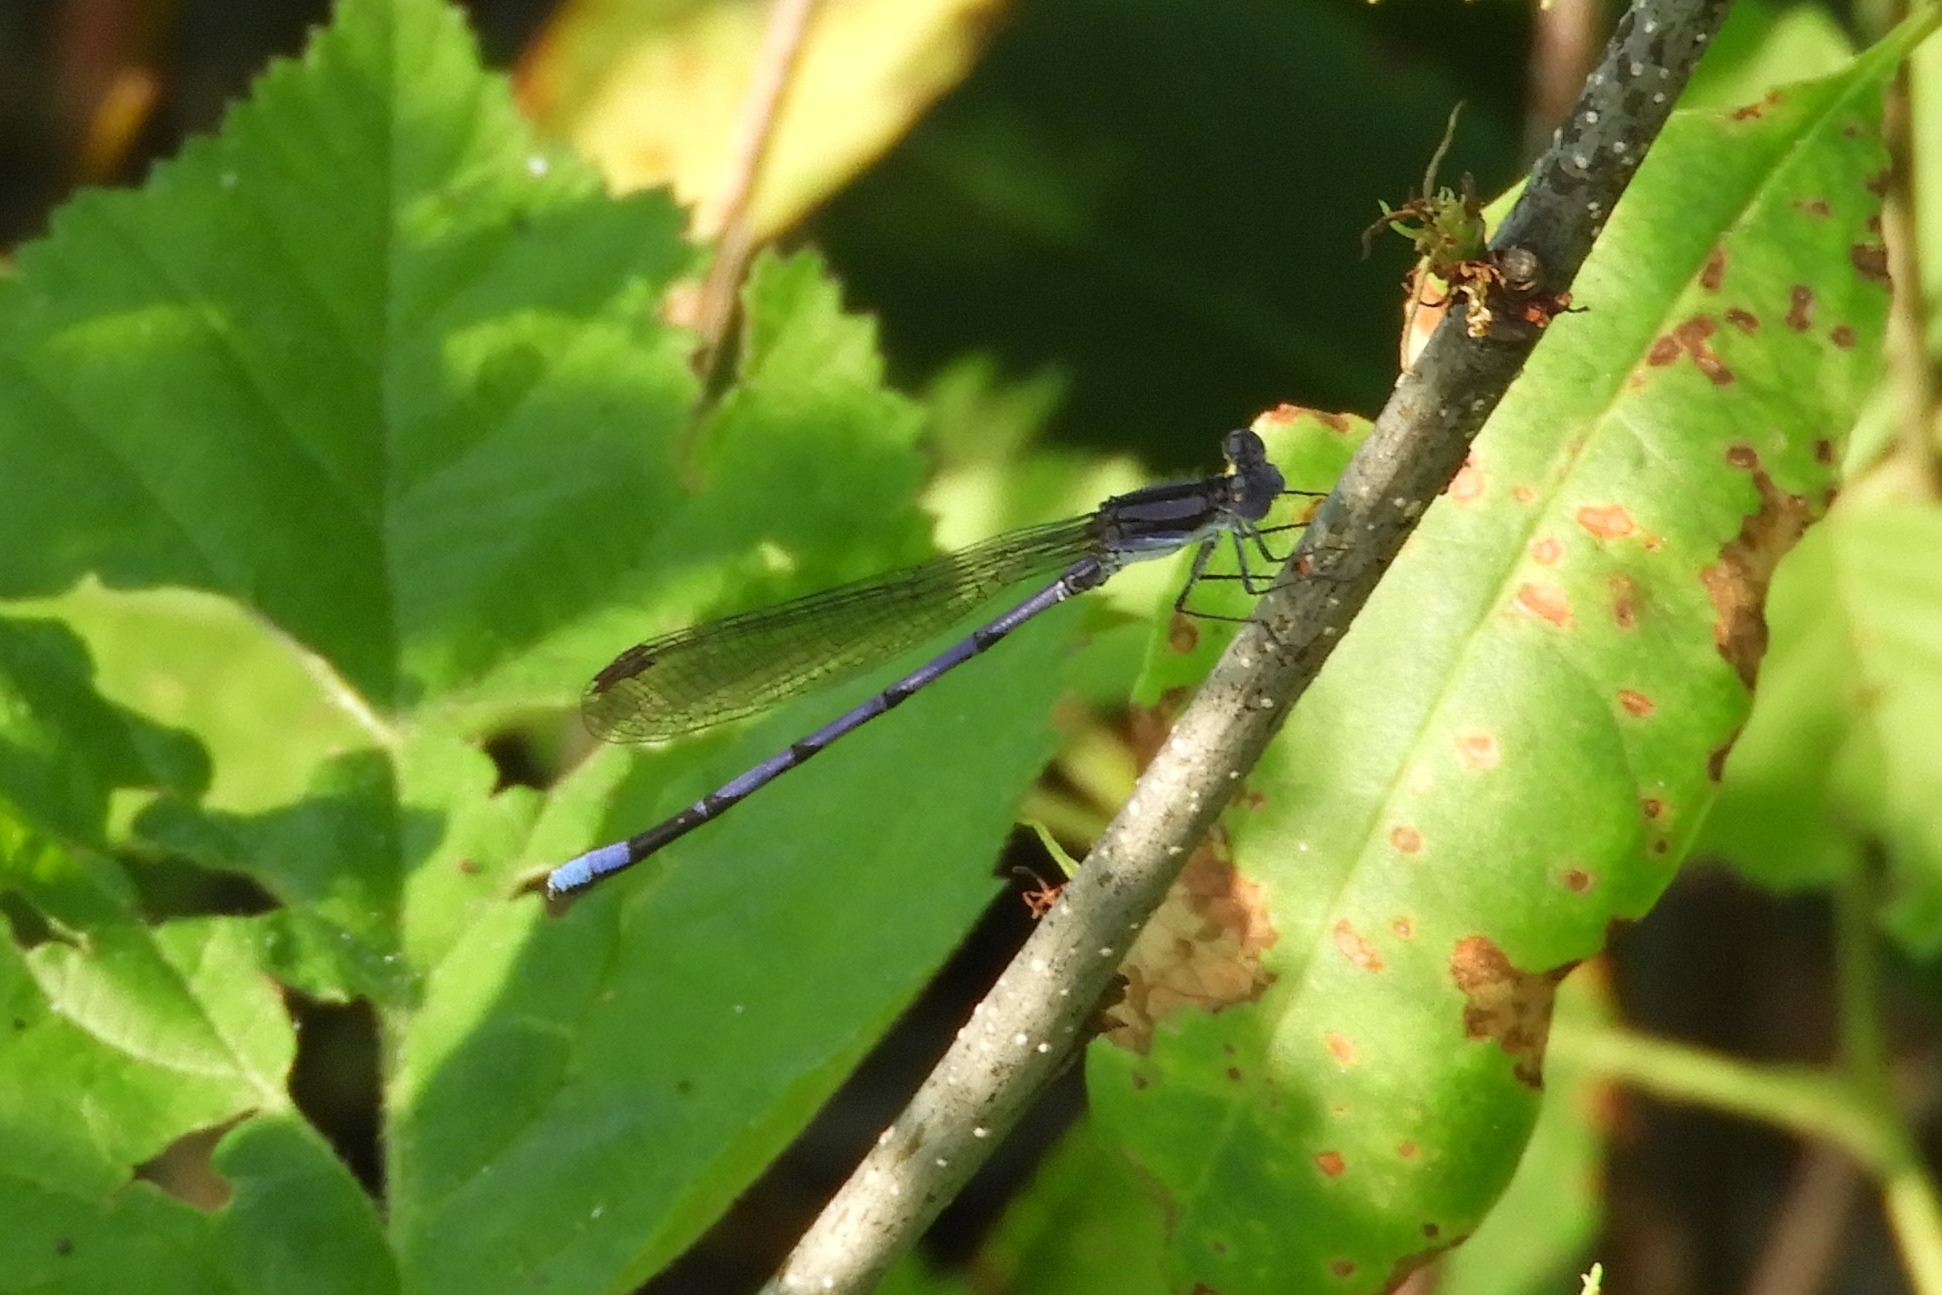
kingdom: Animalia
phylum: Arthropoda
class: Insecta
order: Odonata
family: Coenagrionidae
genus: Argia
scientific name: Argia fumipennis
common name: Variable dancer
